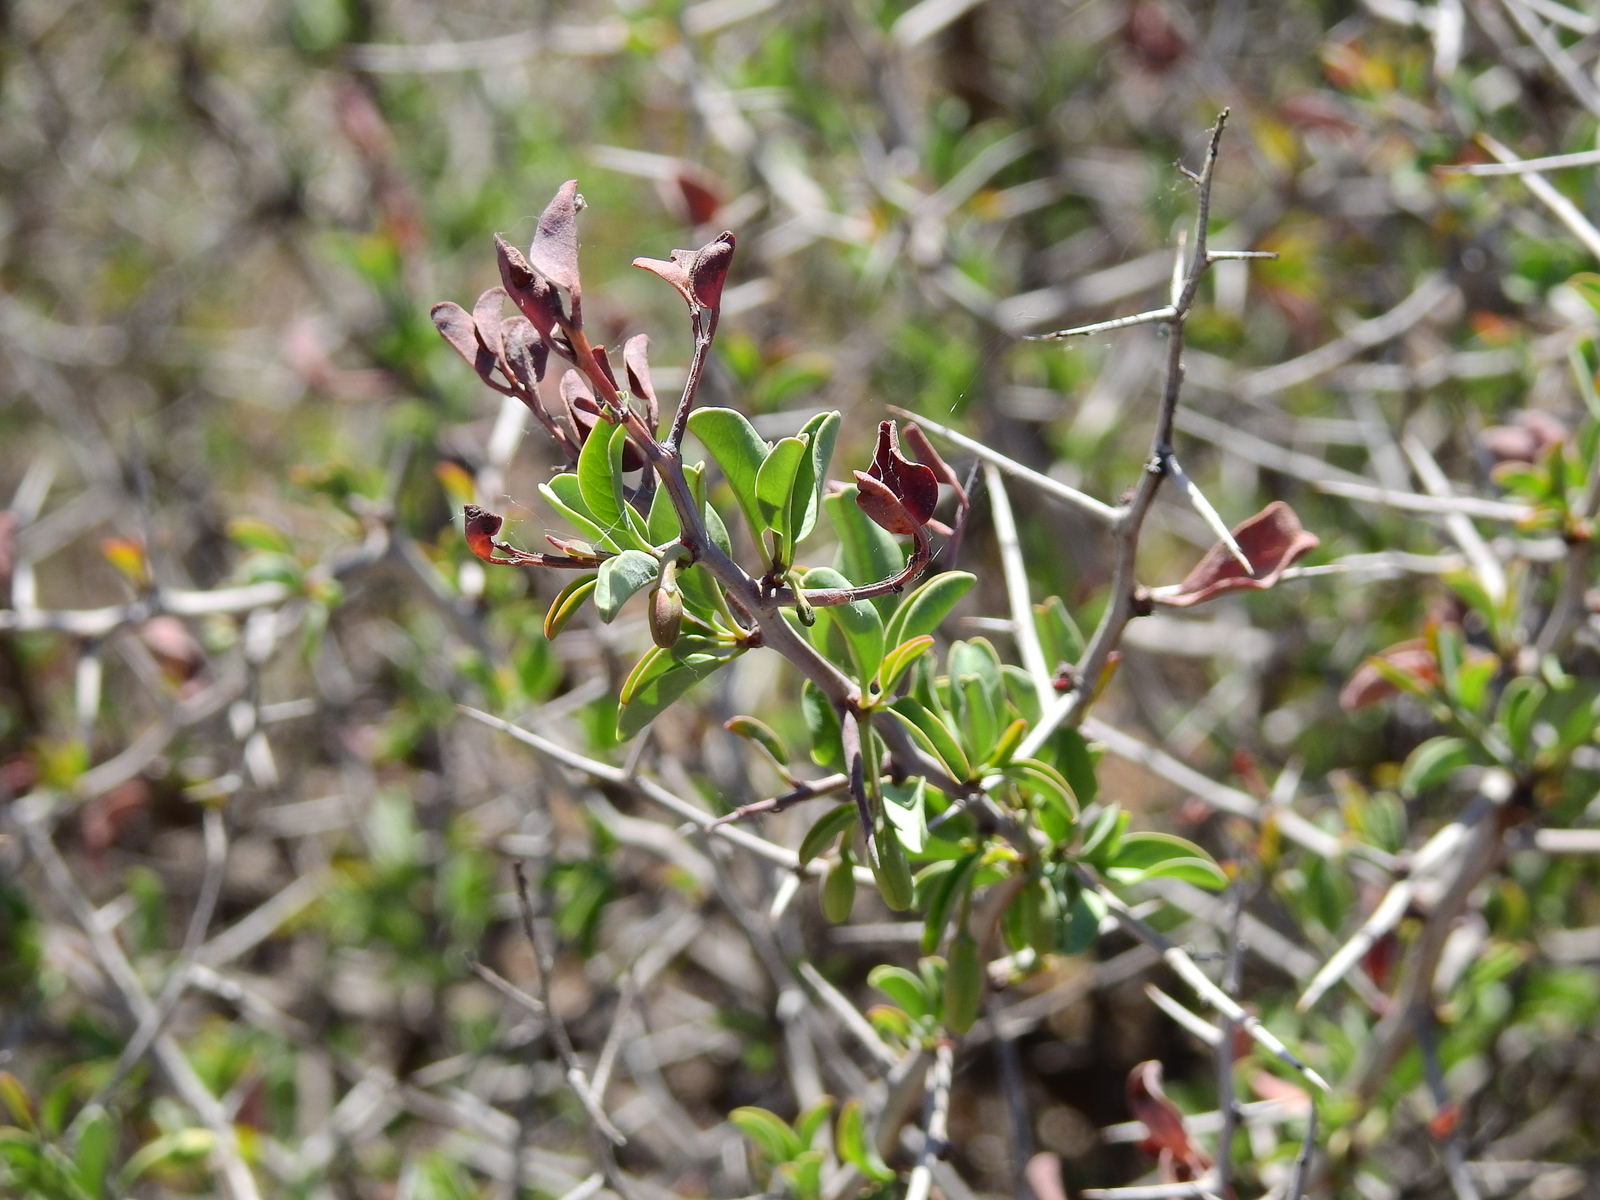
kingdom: Plantae
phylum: Tracheophyta
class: Magnoliopsida
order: Santalales
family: Ximeniaceae
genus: Ximenia
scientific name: Ximenia americana
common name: Tallowwood
